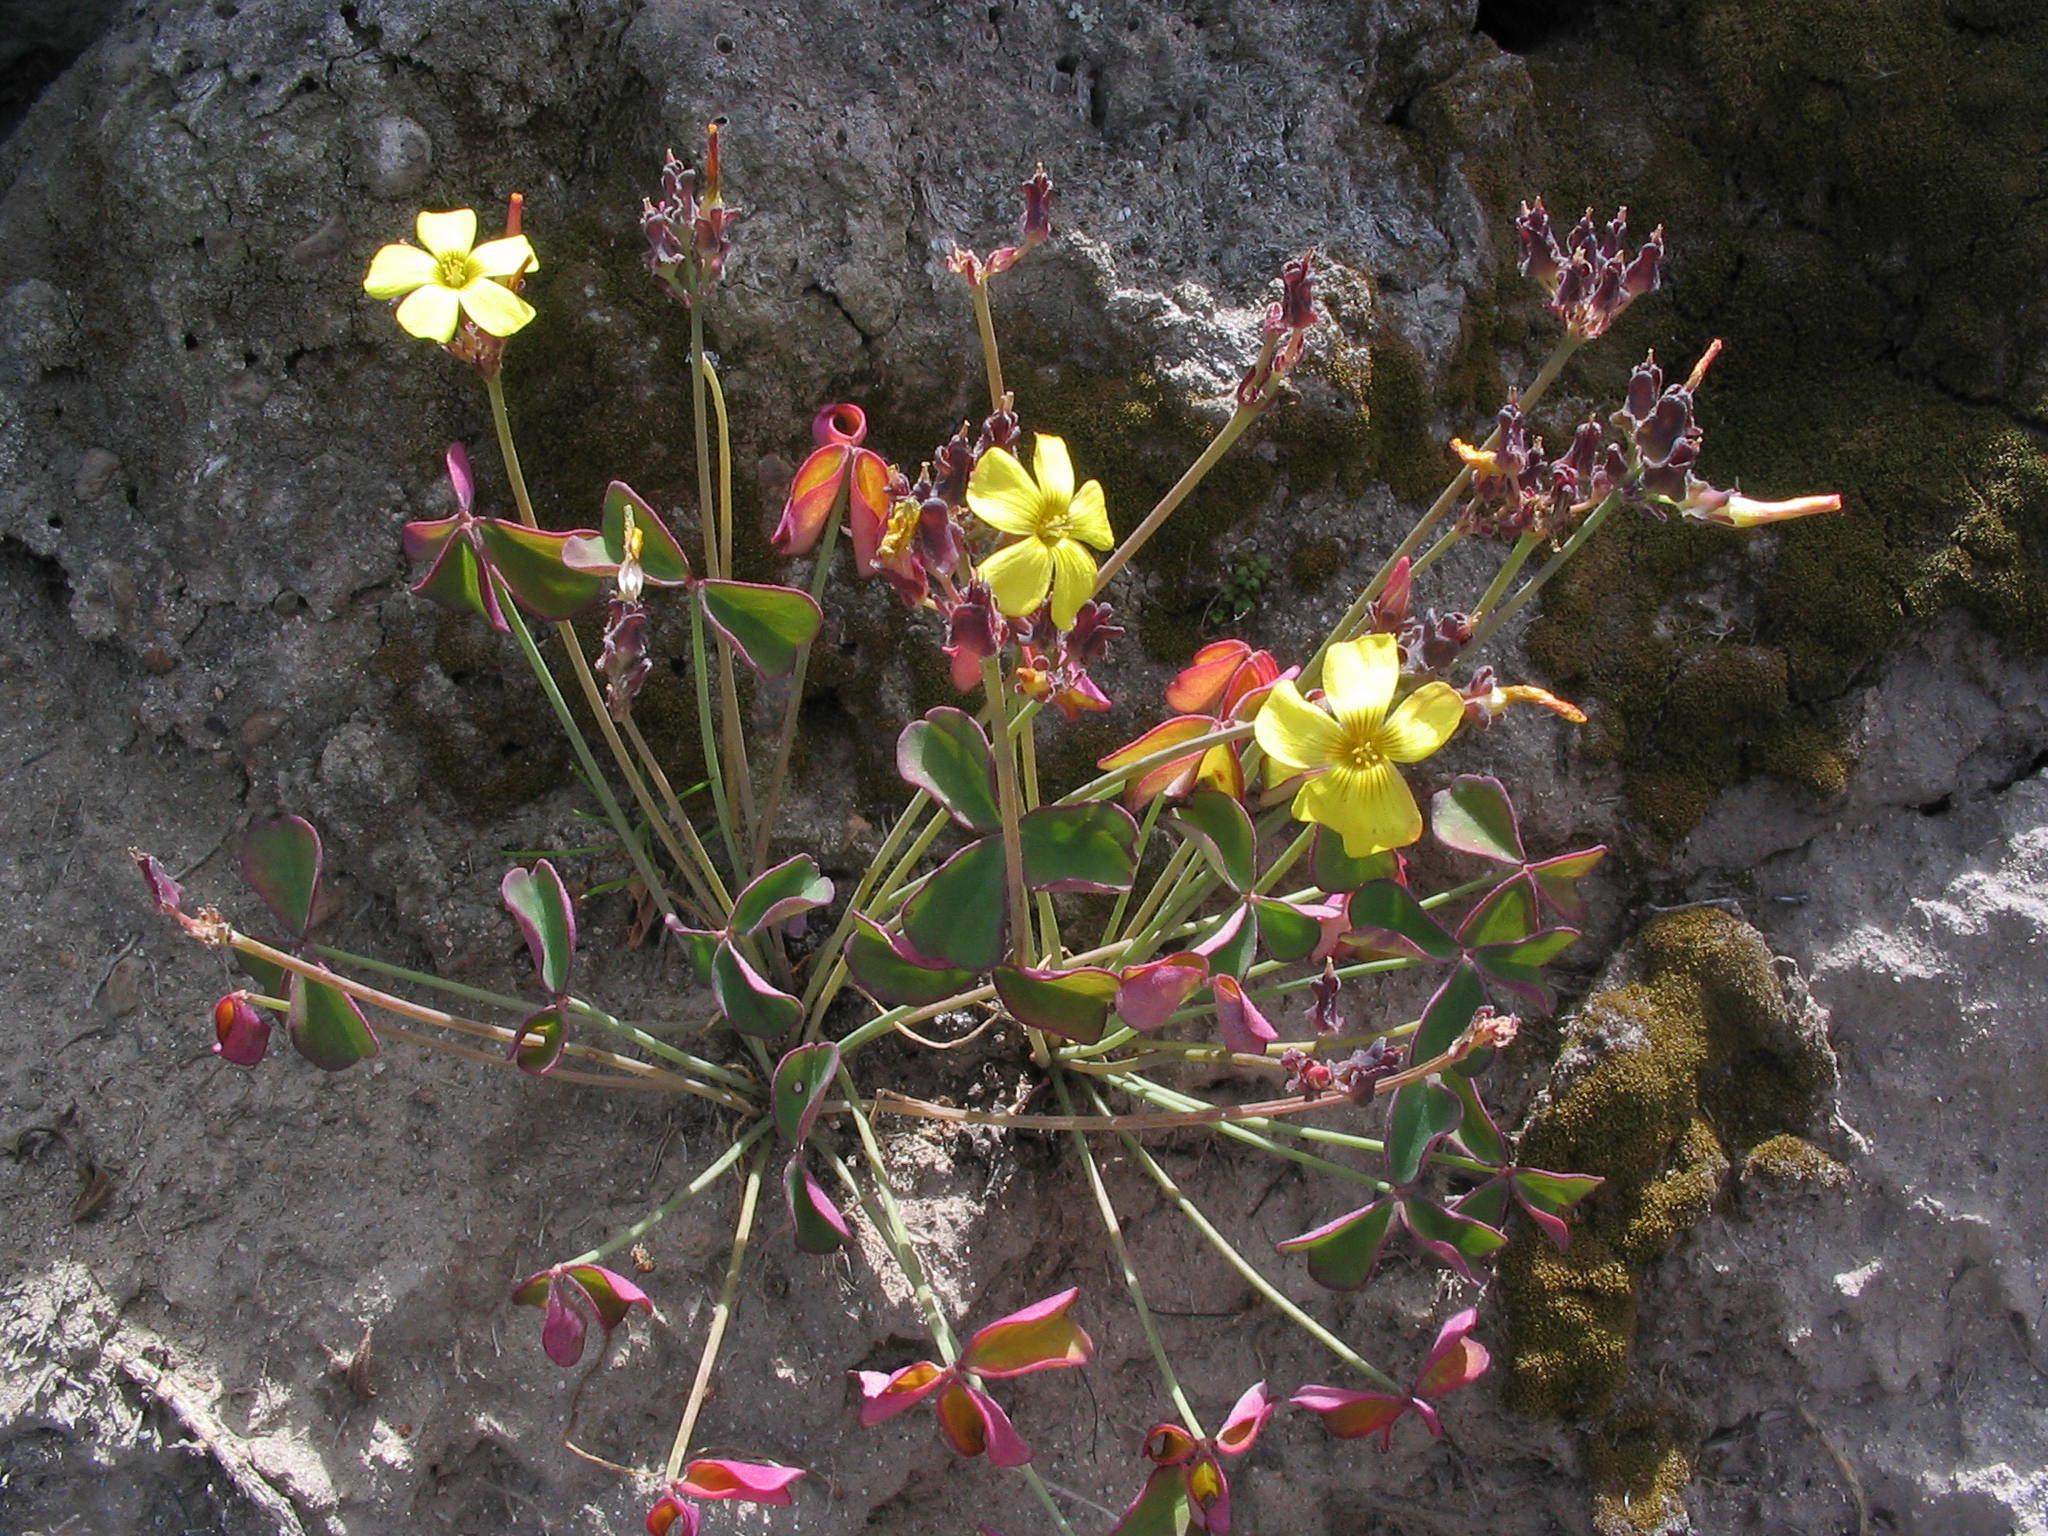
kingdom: Plantae
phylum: Tracheophyta
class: Magnoliopsida
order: Oxalidales
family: Oxalidaceae
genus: Oxalis
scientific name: Oxalis megalorrhiza
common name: Fleshy yellow-sorrel
